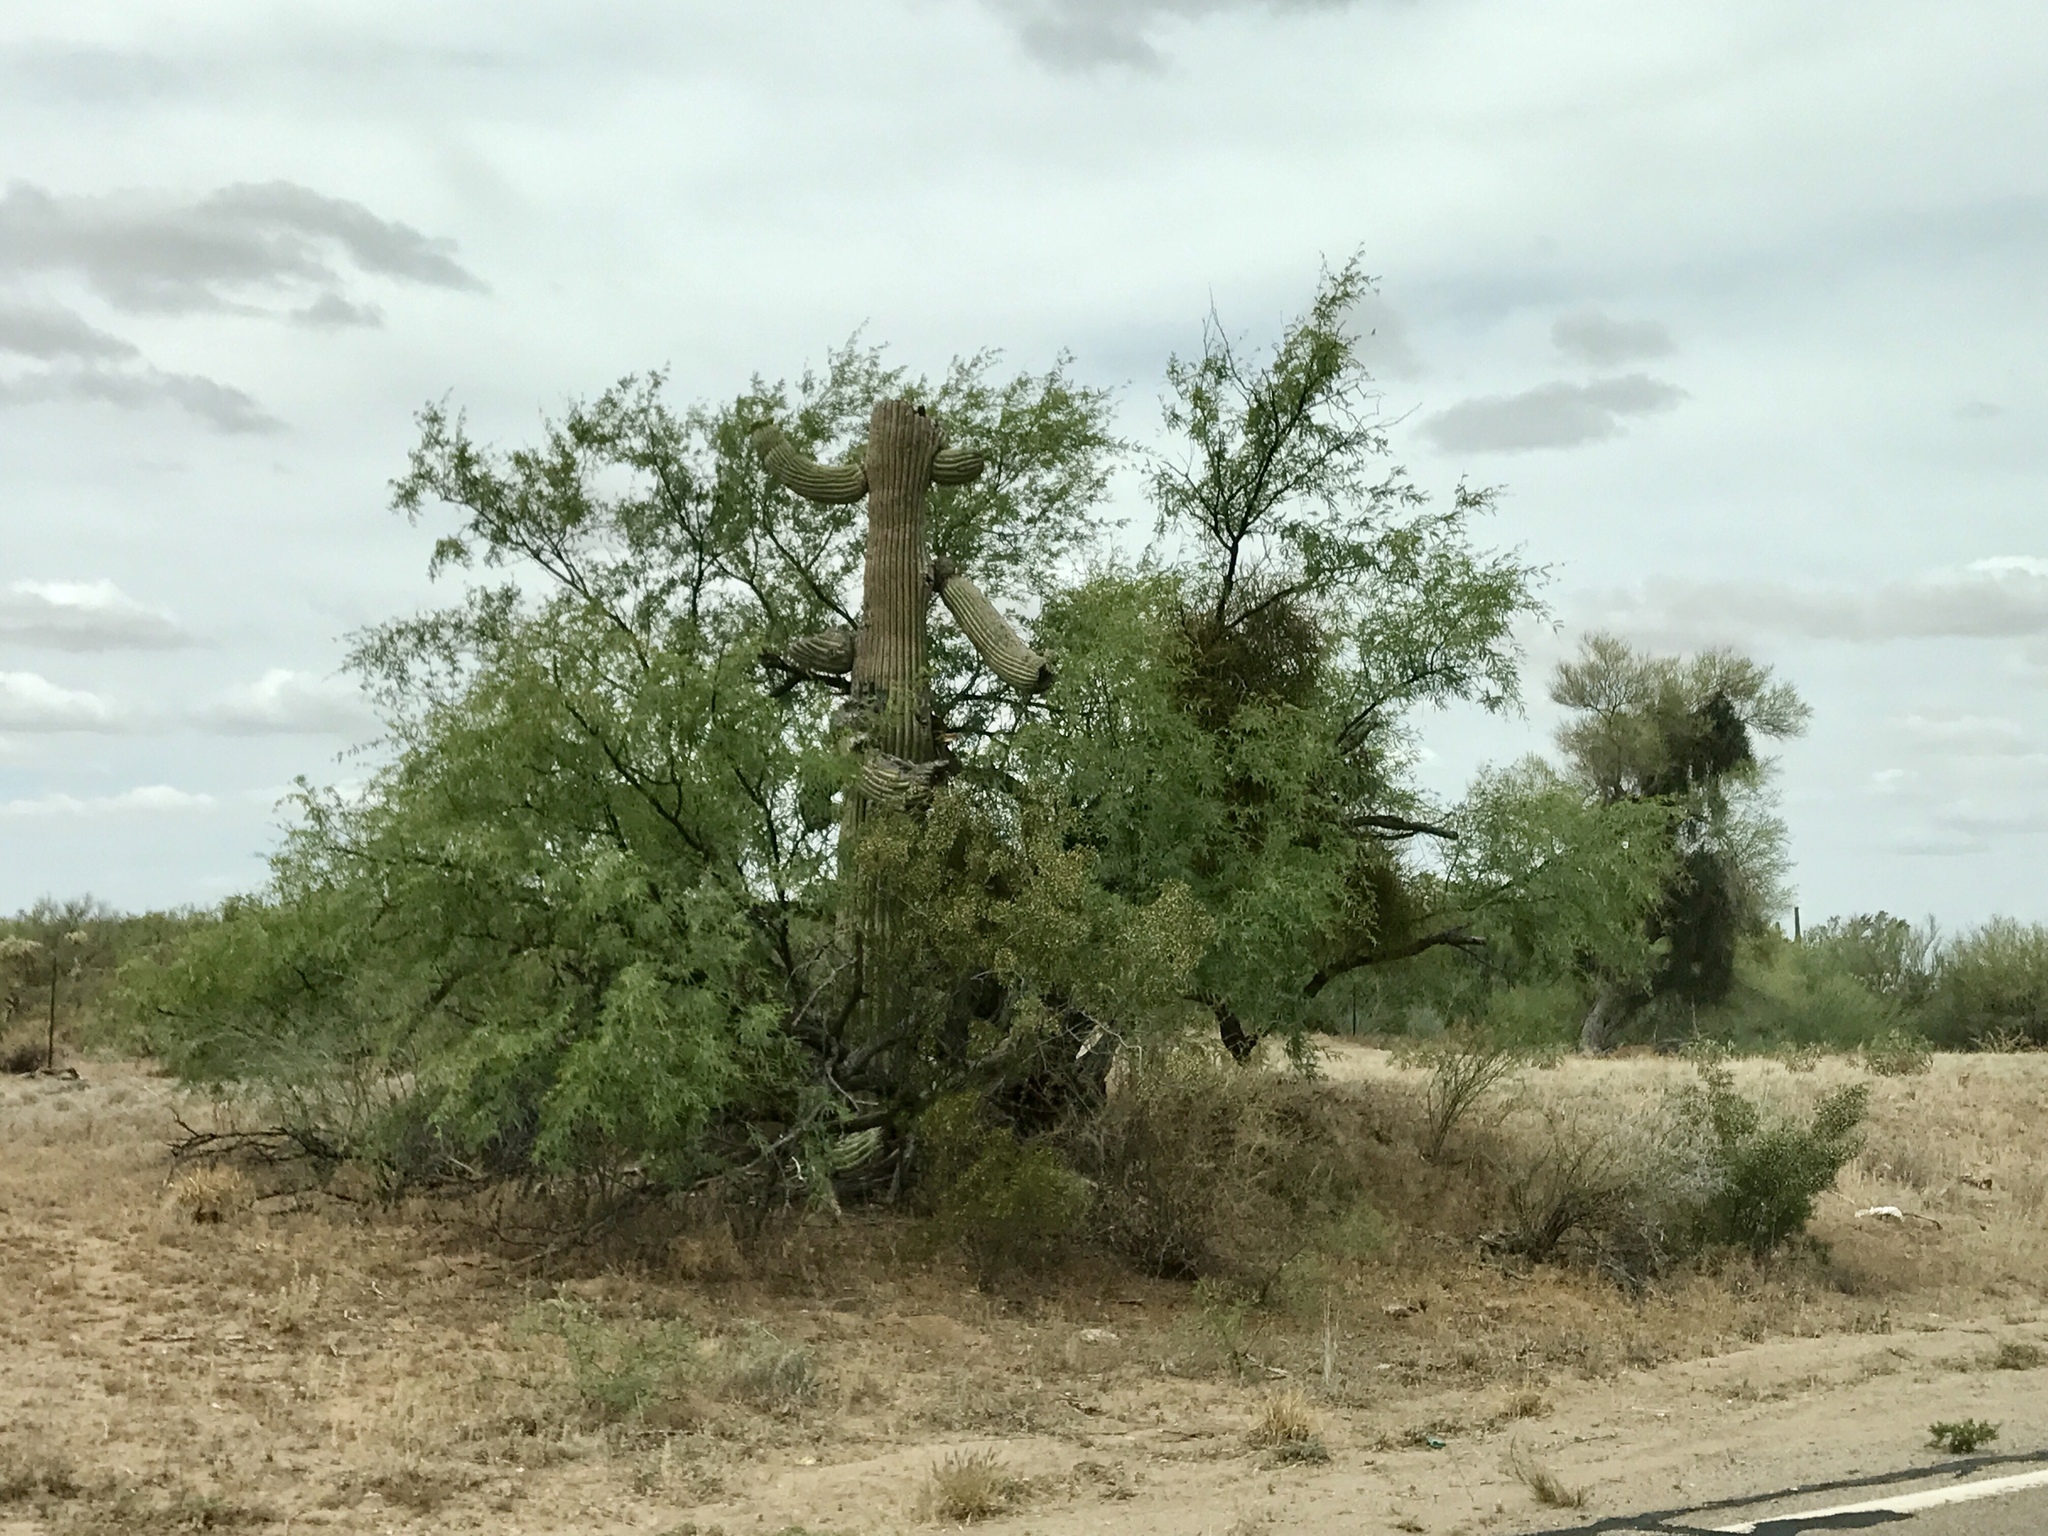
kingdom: Plantae
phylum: Tracheophyta
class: Magnoliopsida
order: Caryophyllales
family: Cactaceae
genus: Carnegiea
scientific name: Carnegiea gigantea
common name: Saguaro
